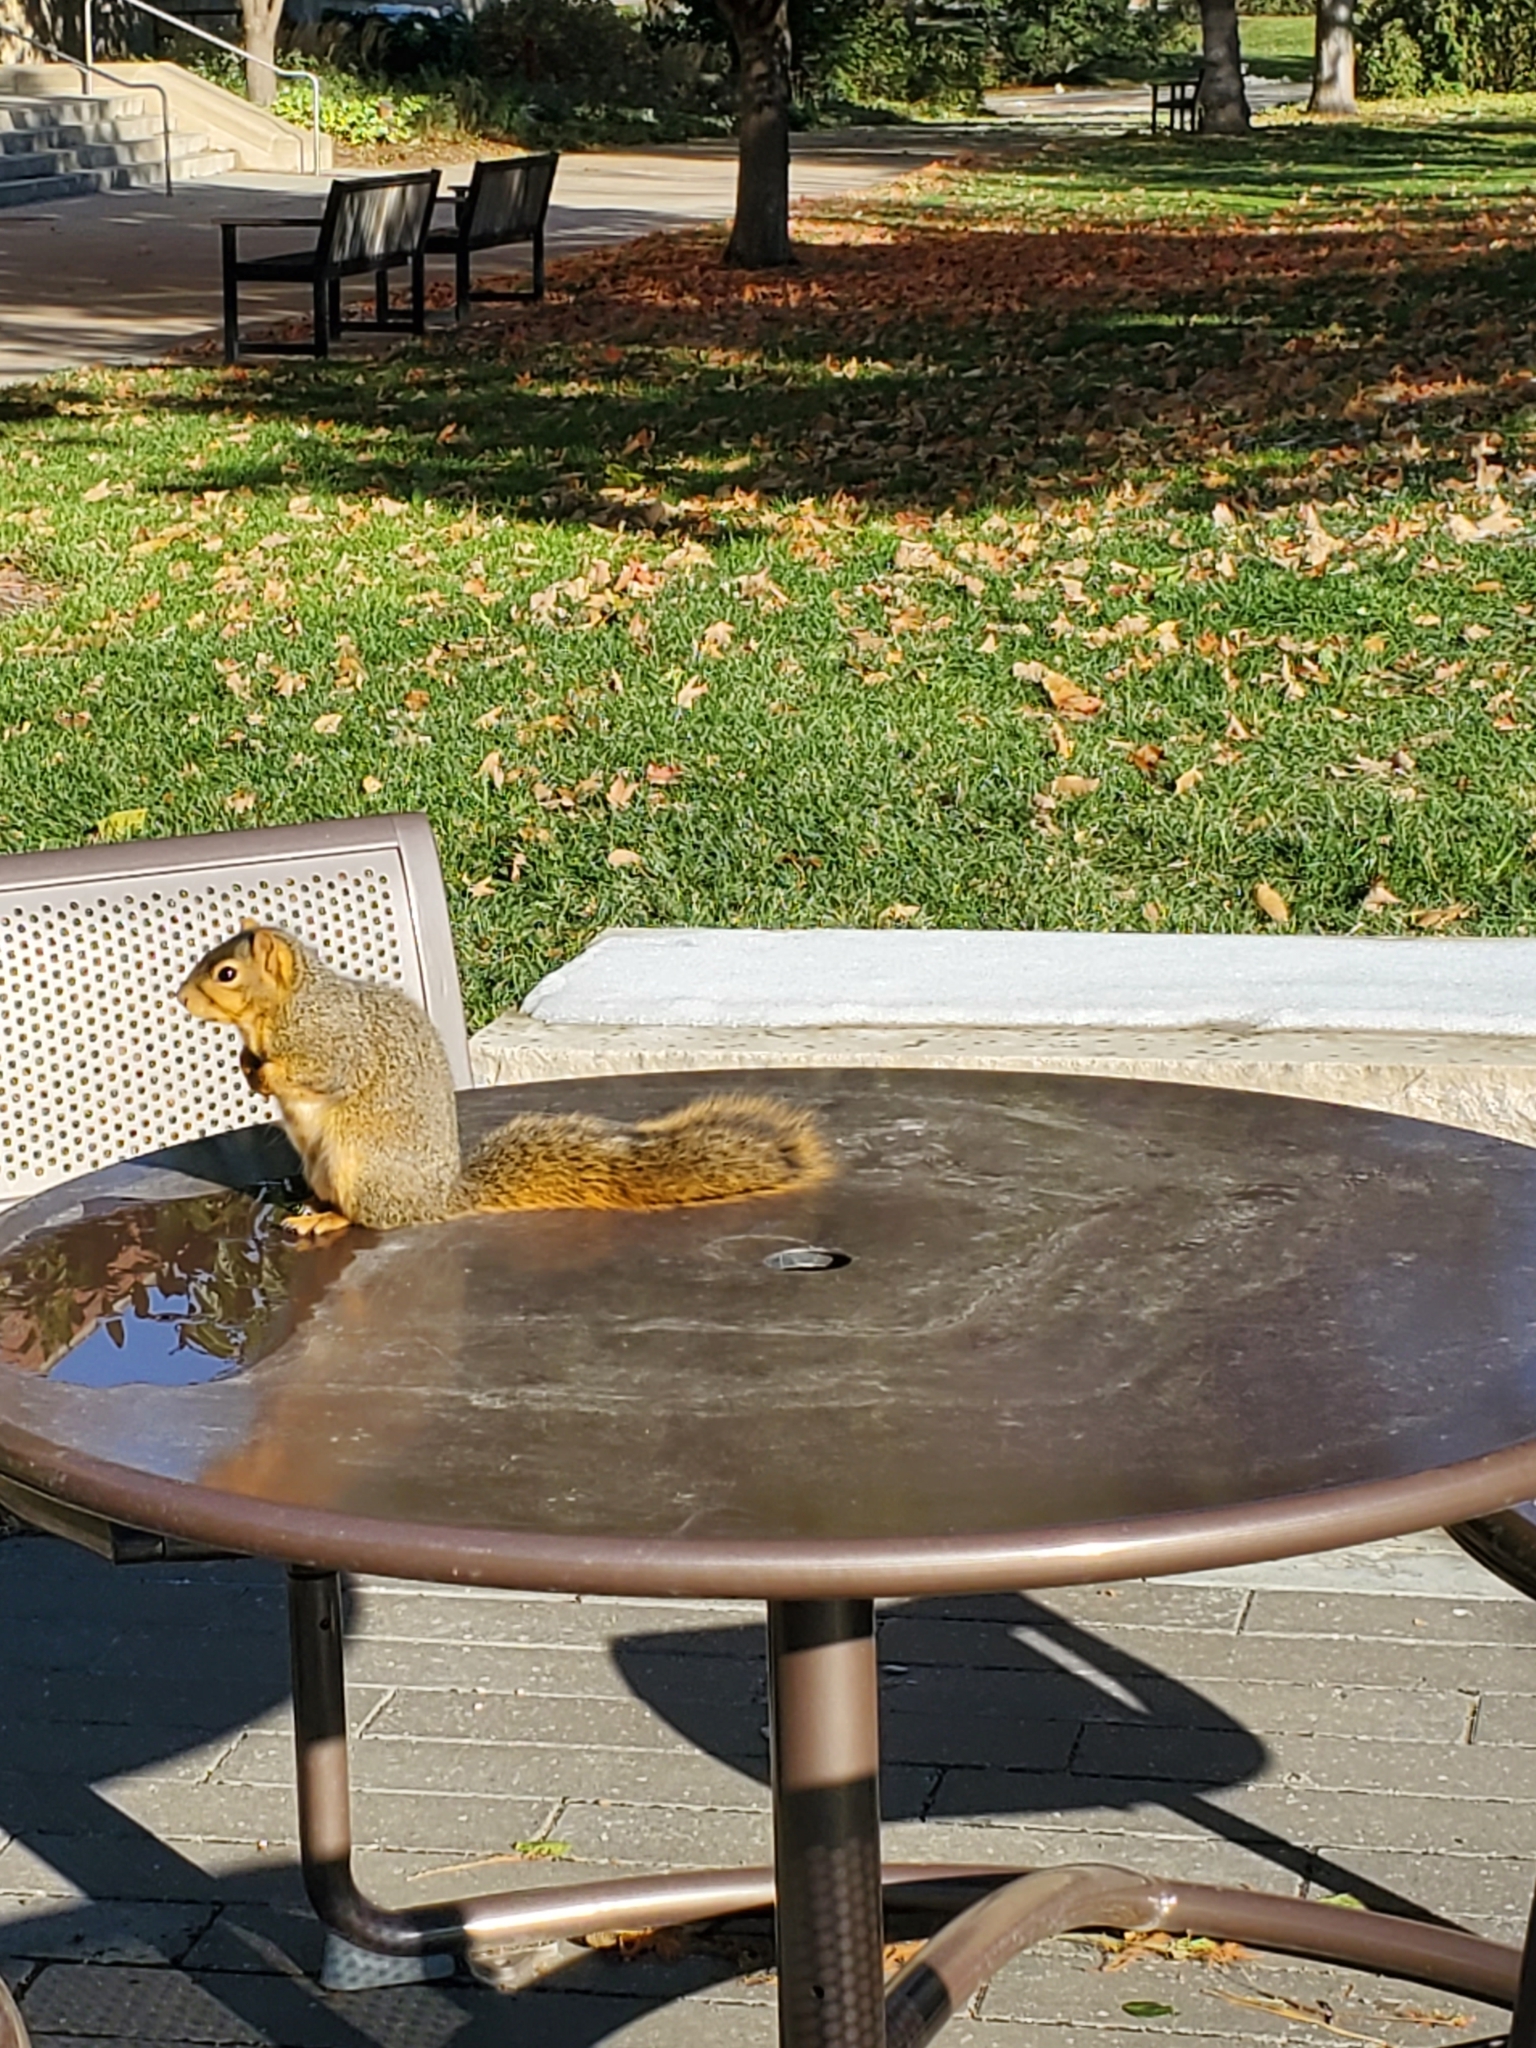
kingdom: Animalia
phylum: Chordata
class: Mammalia
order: Rodentia
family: Sciuridae
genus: Sciurus
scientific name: Sciurus niger
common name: Fox squirrel
